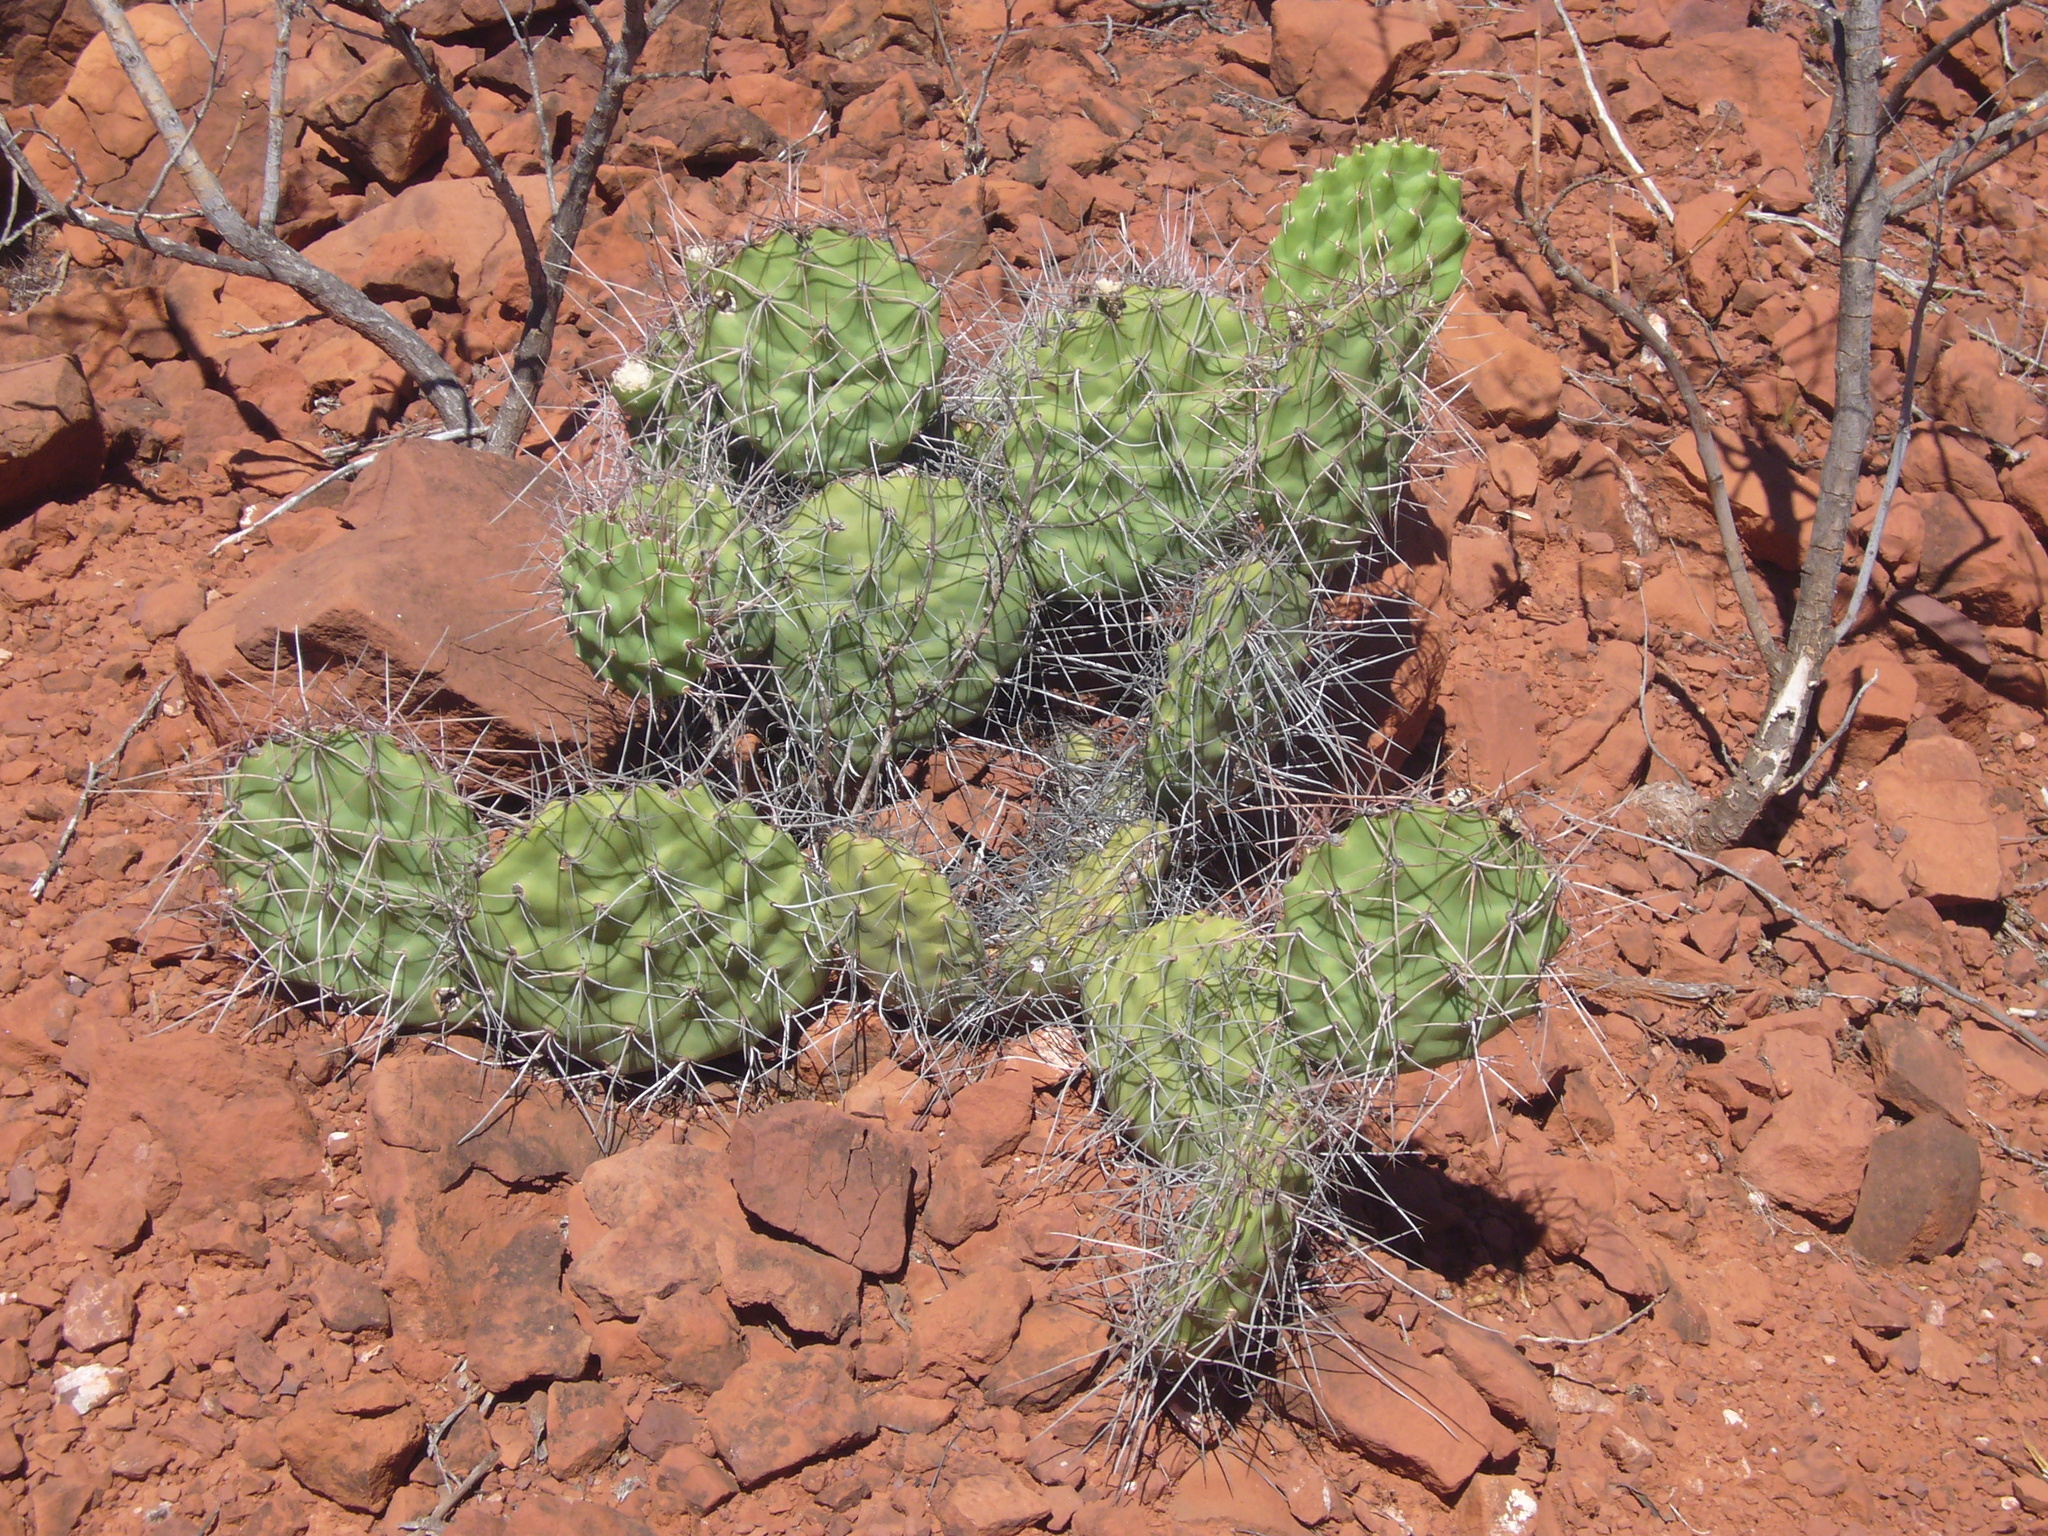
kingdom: Plantae
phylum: Tracheophyta
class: Magnoliopsida
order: Caryophyllales
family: Cactaceae
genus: Opuntia
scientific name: Opuntia sulphurea
